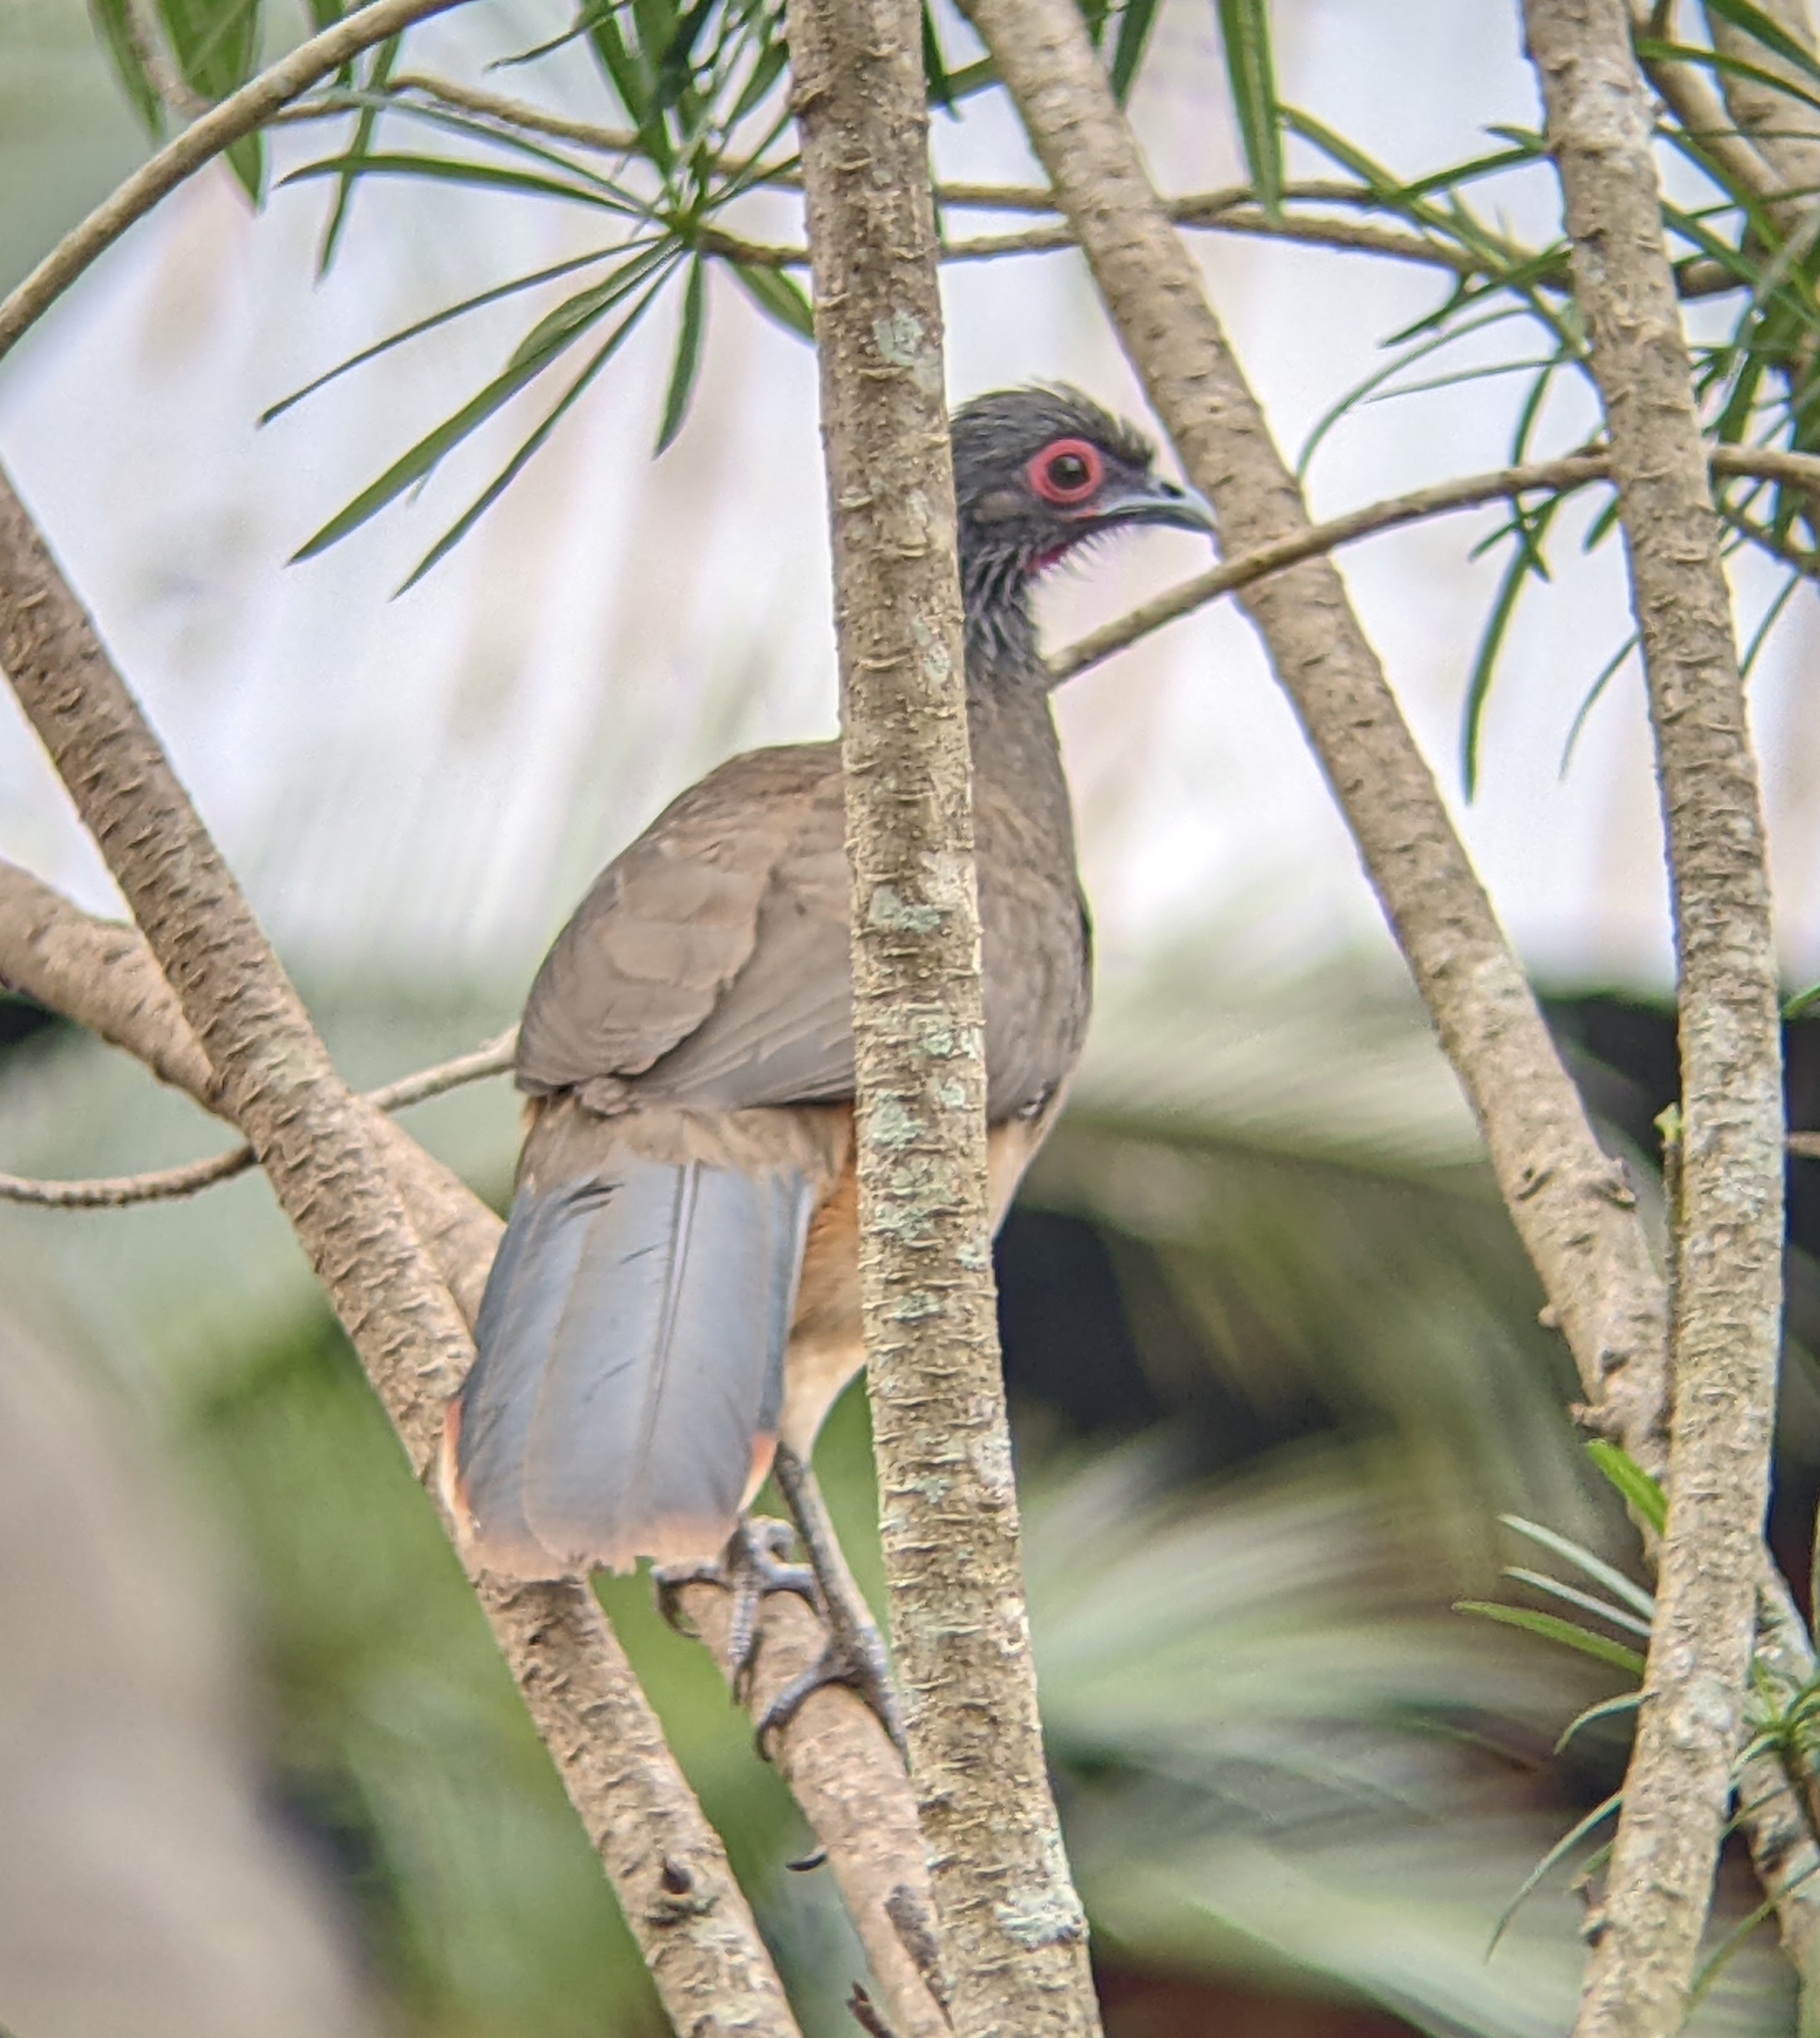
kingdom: Animalia
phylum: Chordata
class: Aves
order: Galliformes
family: Cracidae
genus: Ortalis
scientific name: Ortalis poliocephala
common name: West mexican chachalaca
